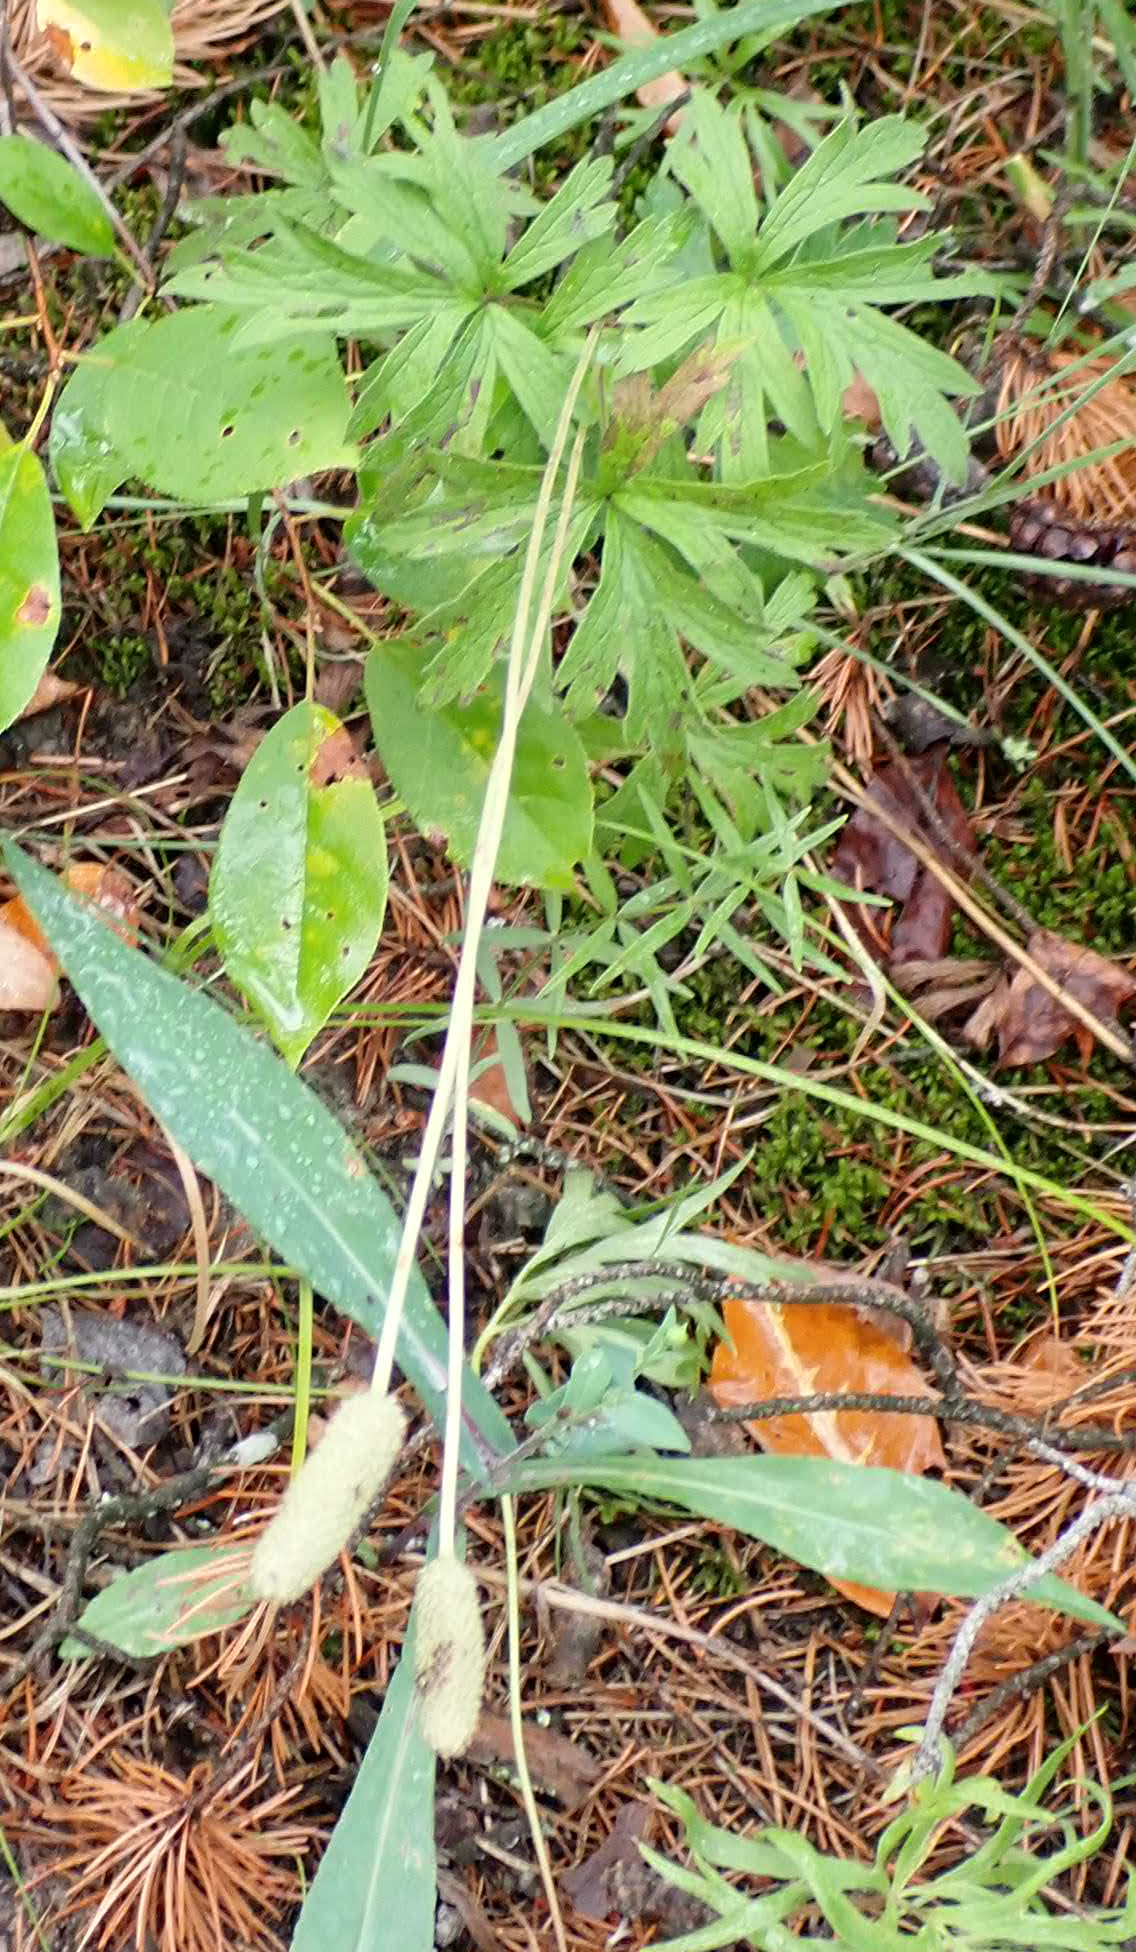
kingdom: Plantae
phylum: Tracheophyta
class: Magnoliopsida
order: Ranunculales
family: Ranunculaceae
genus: Anemone
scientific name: Anemone cylindrica
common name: Candle anemone
